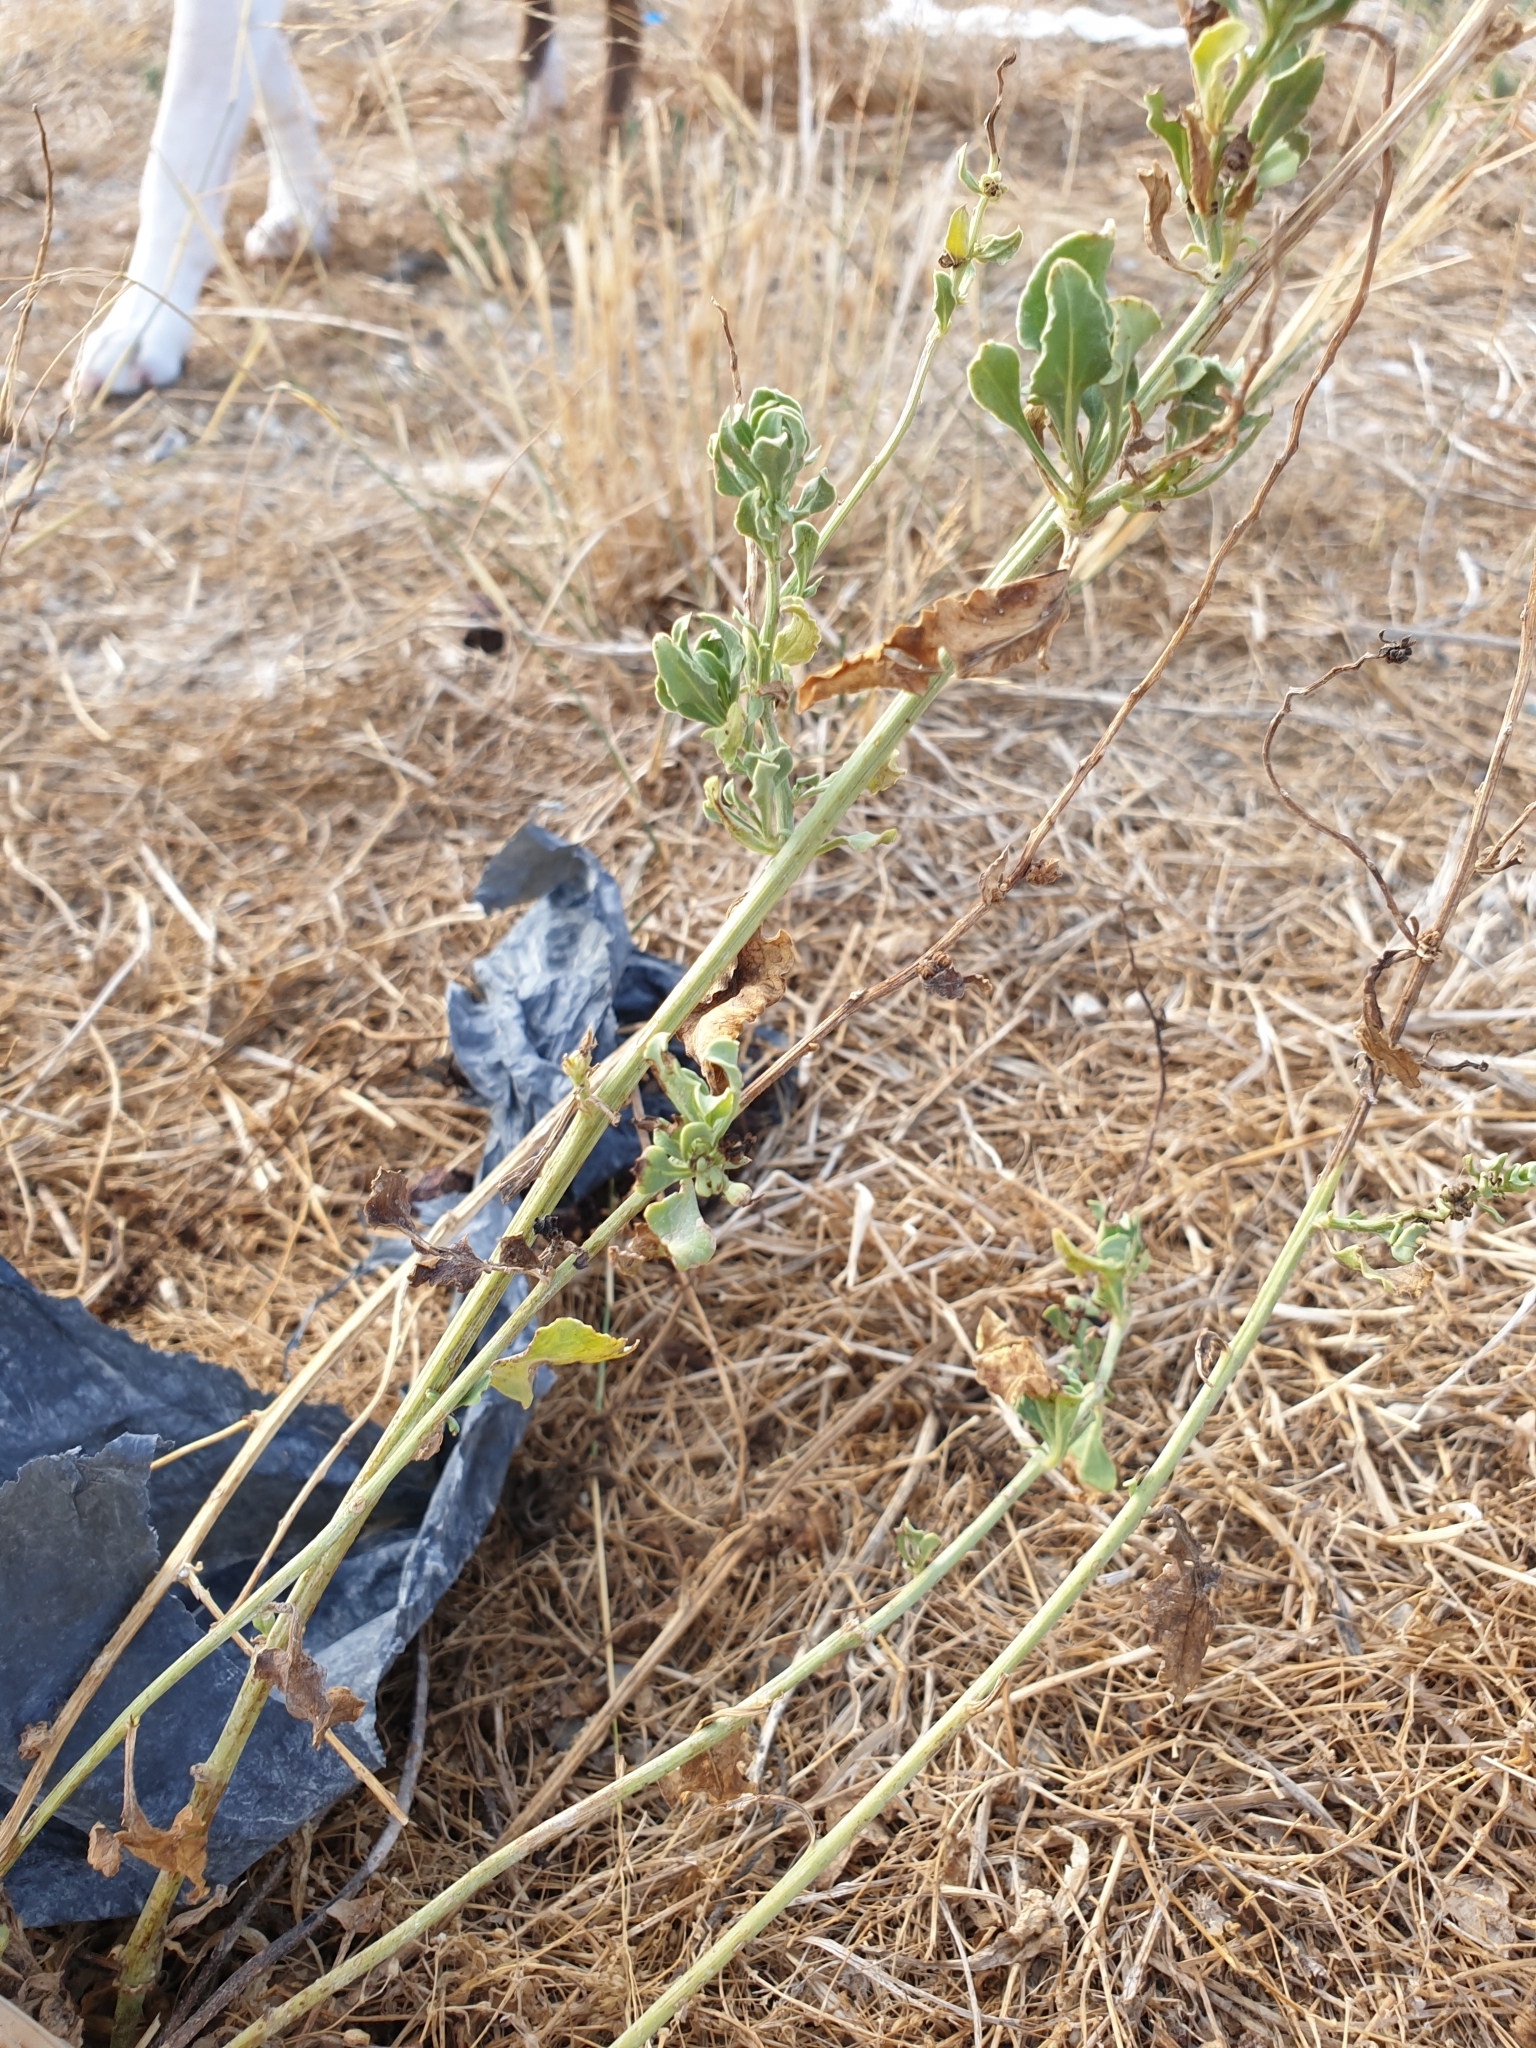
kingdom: Plantae
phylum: Tracheophyta
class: Magnoliopsida
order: Caryophyllales
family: Amaranthaceae
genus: Beta
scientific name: Beta vulgaris
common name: Beet
